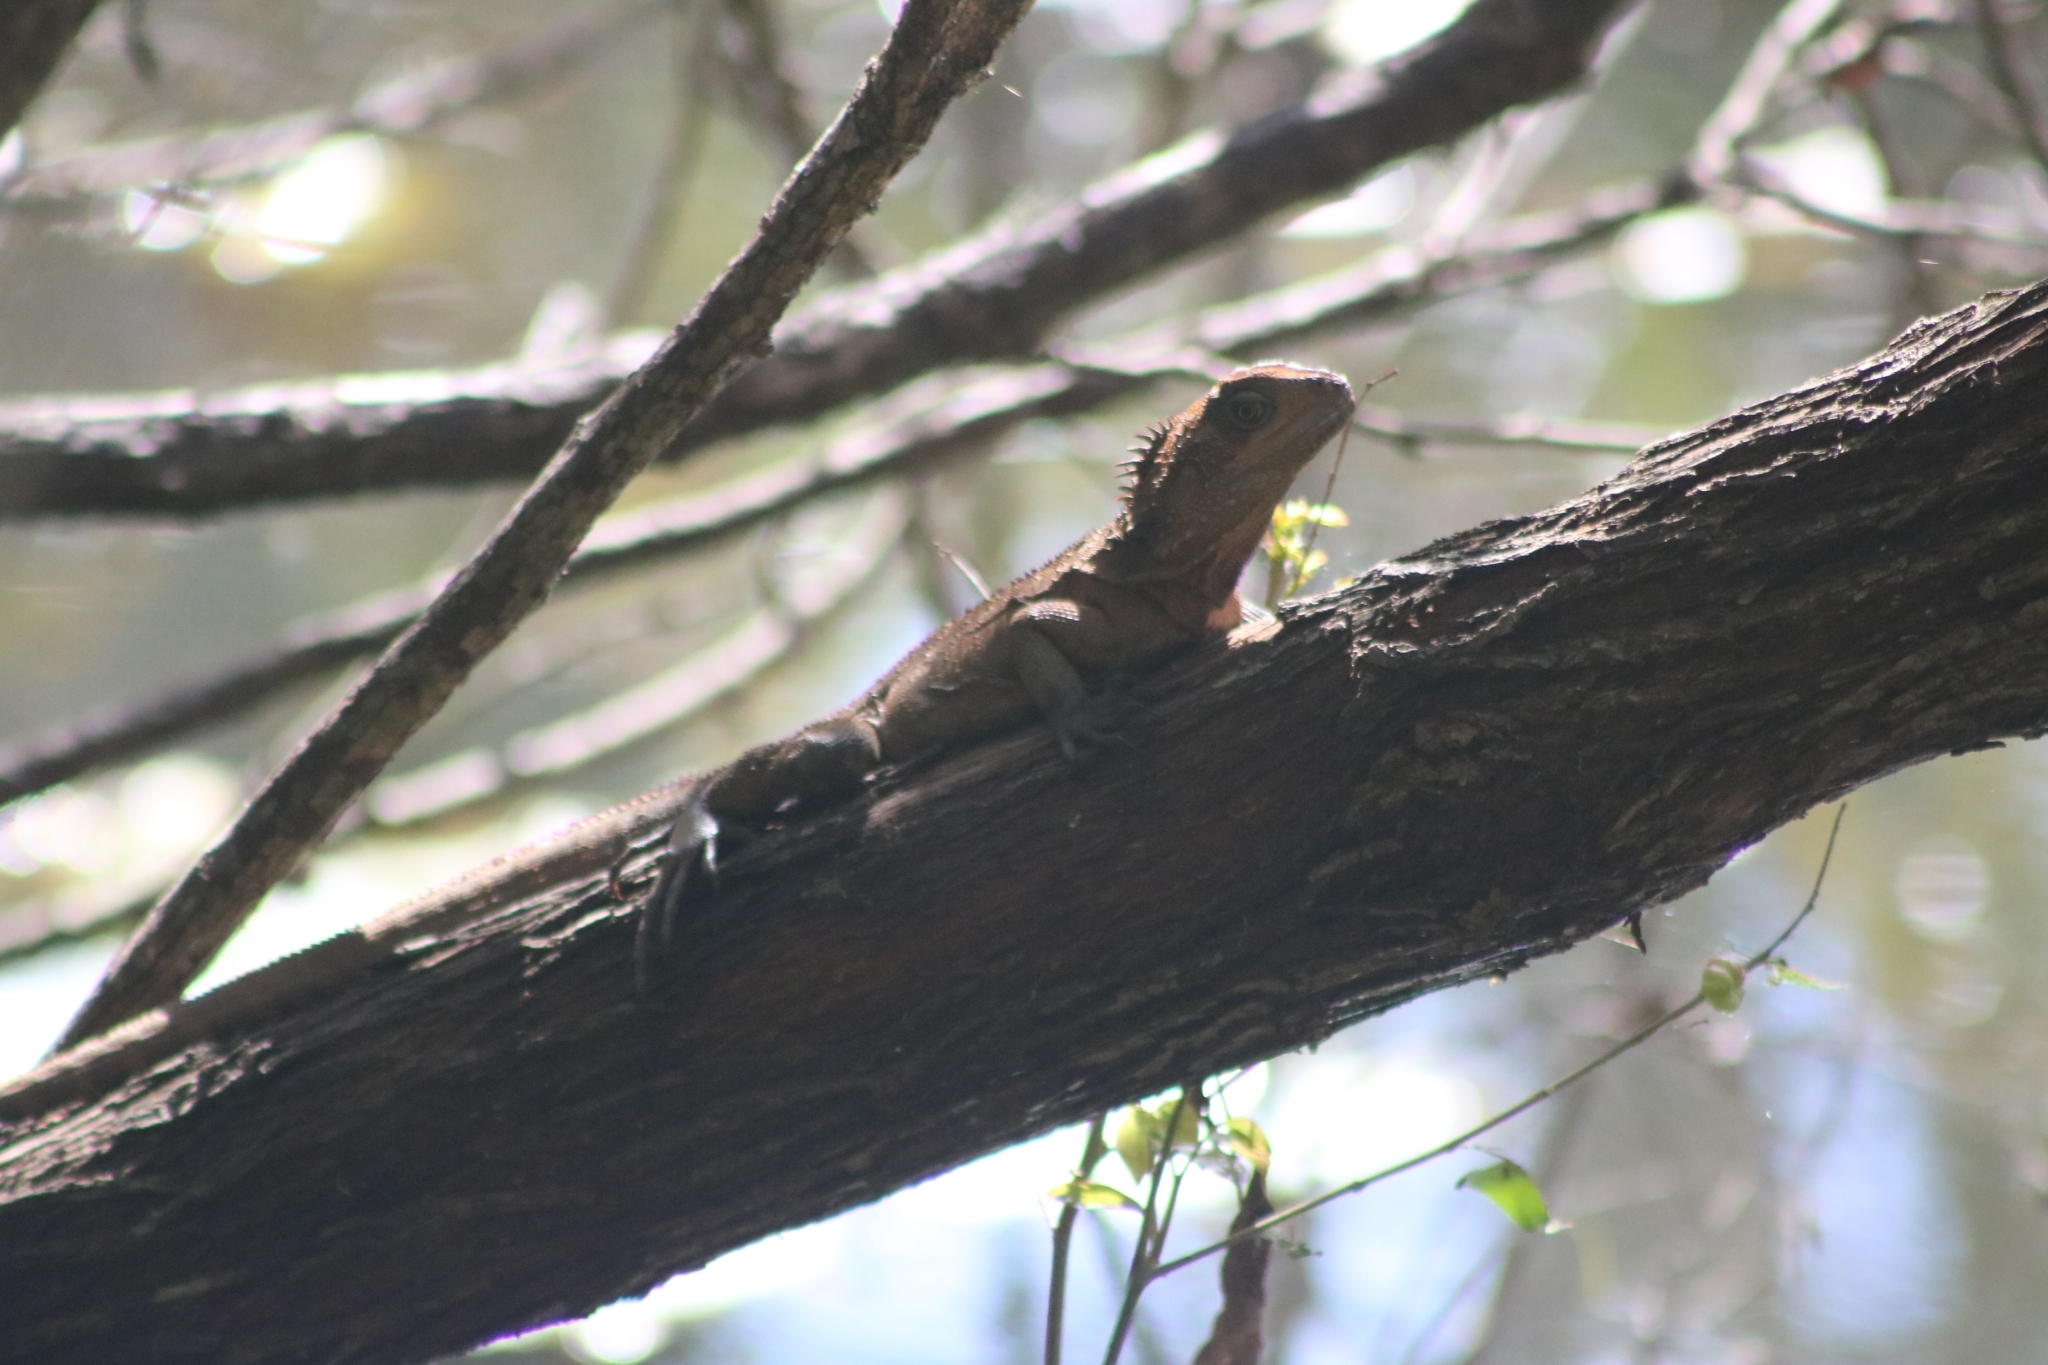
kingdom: Animalia
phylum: Chordata
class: Squamata
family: Agamidae
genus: Intellagama
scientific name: Intellagama lesueurii
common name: Eastern water dragon
